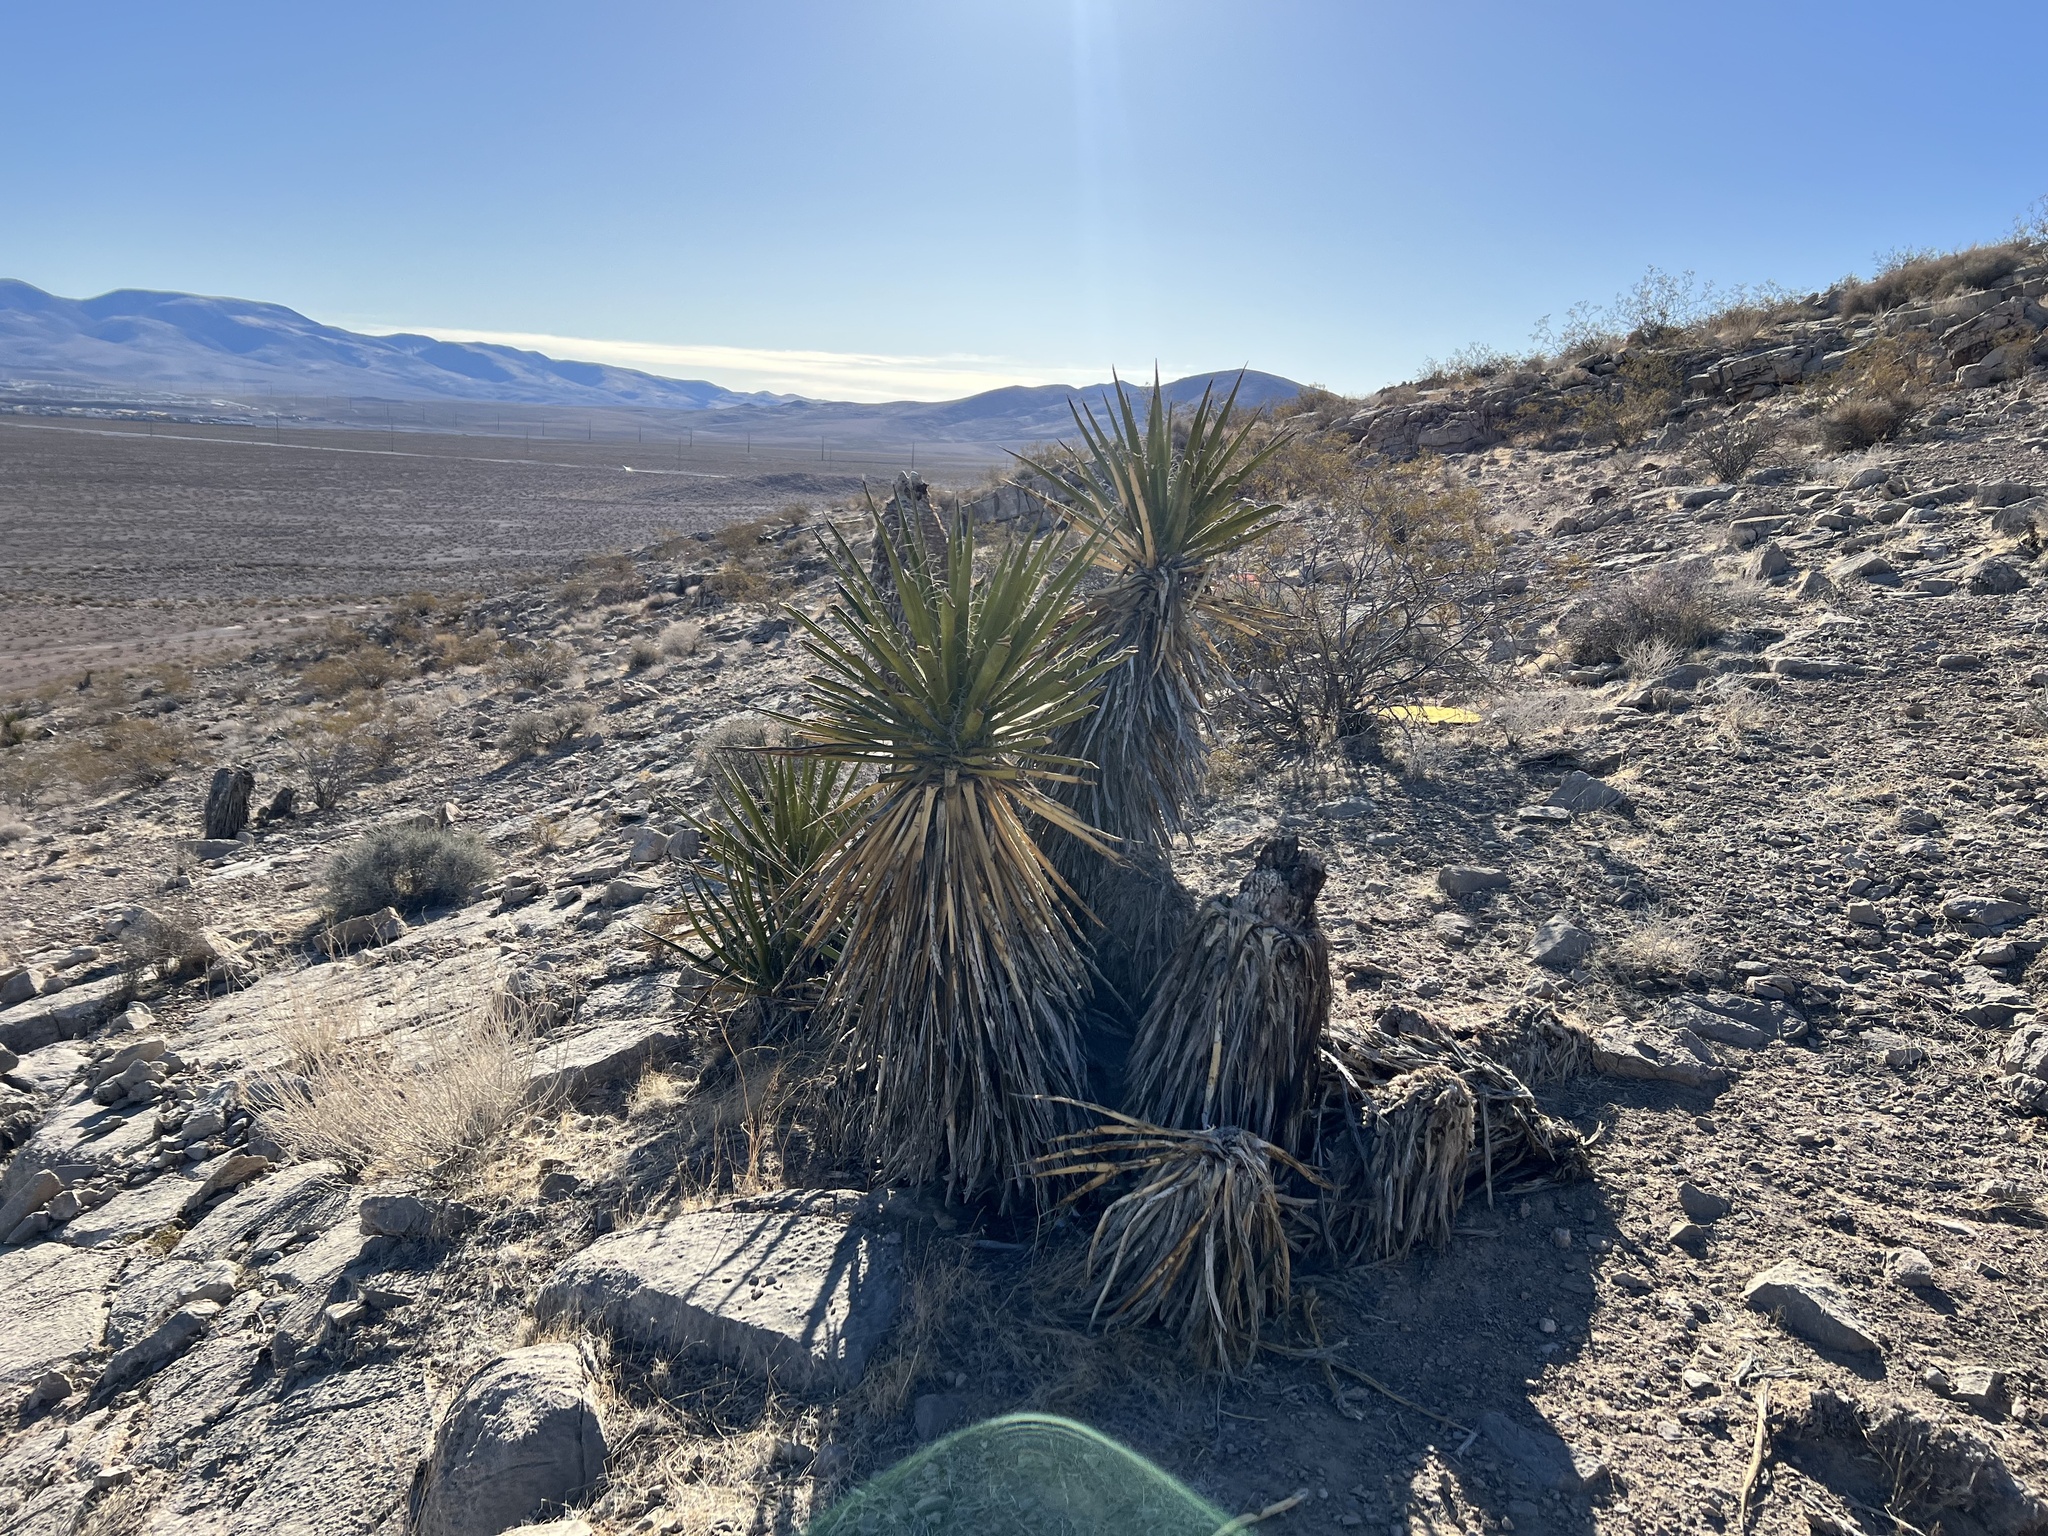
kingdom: Plantae
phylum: Tracheophyta
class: Liliopsida
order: Asparagales
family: Asparagaceae
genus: Yucca
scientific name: Yucca schidigera
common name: Mojave yucca
